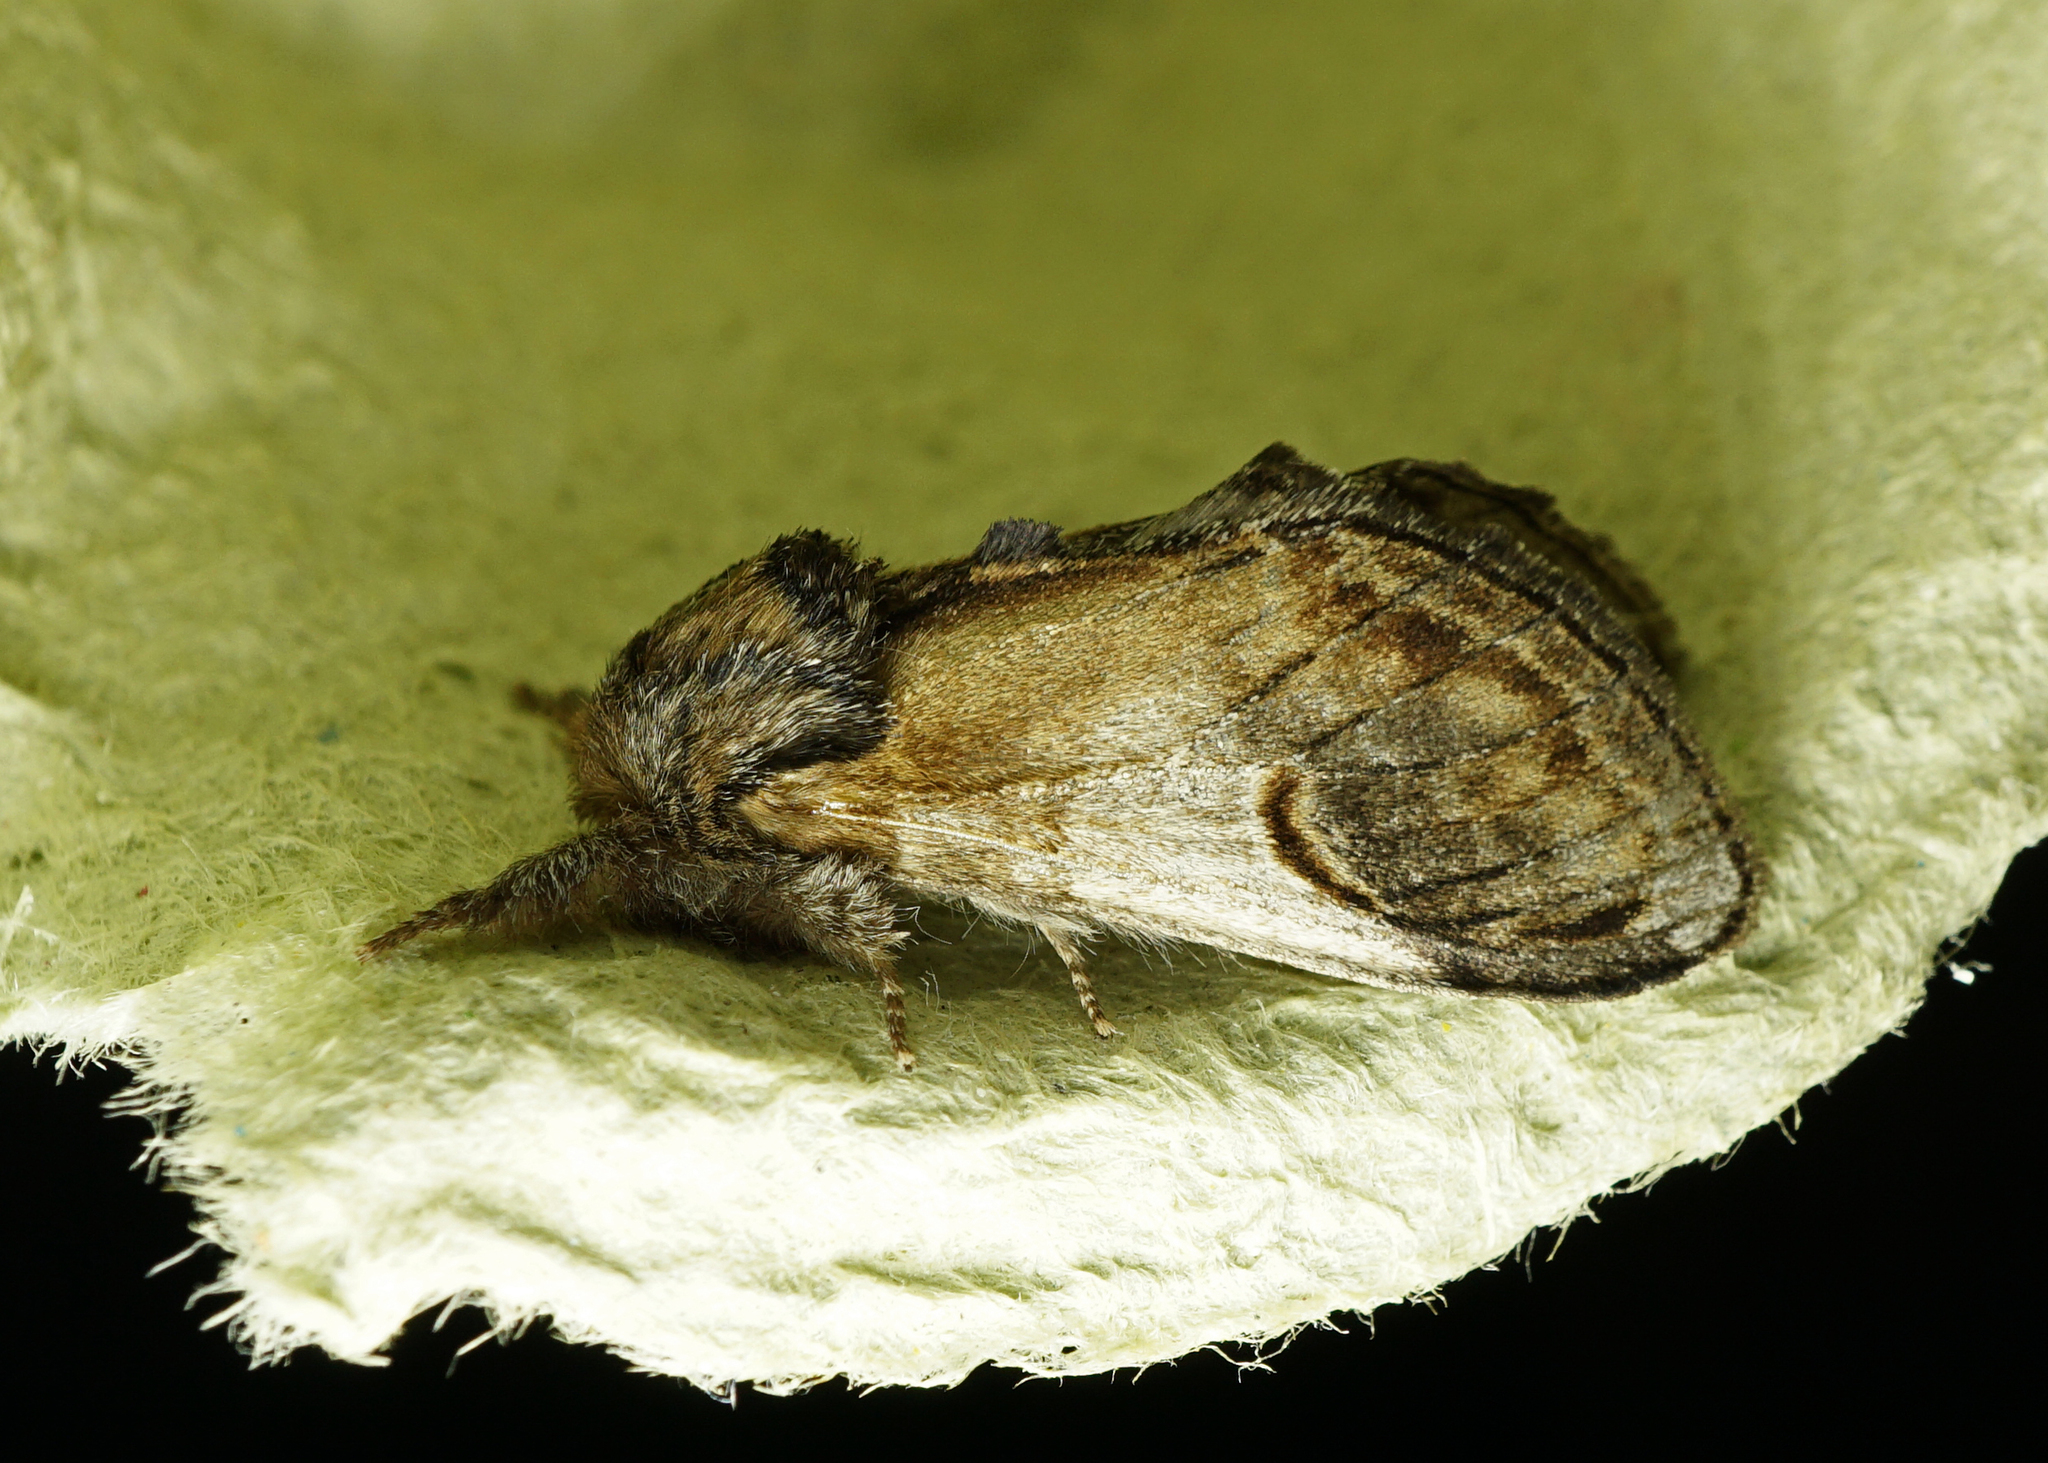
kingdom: Animalia
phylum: Arthropoda
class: Insecta
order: Lepidoptera
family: Notodontidae
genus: Notodonta
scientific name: Notodonta ziczac
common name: Pebble prominent
